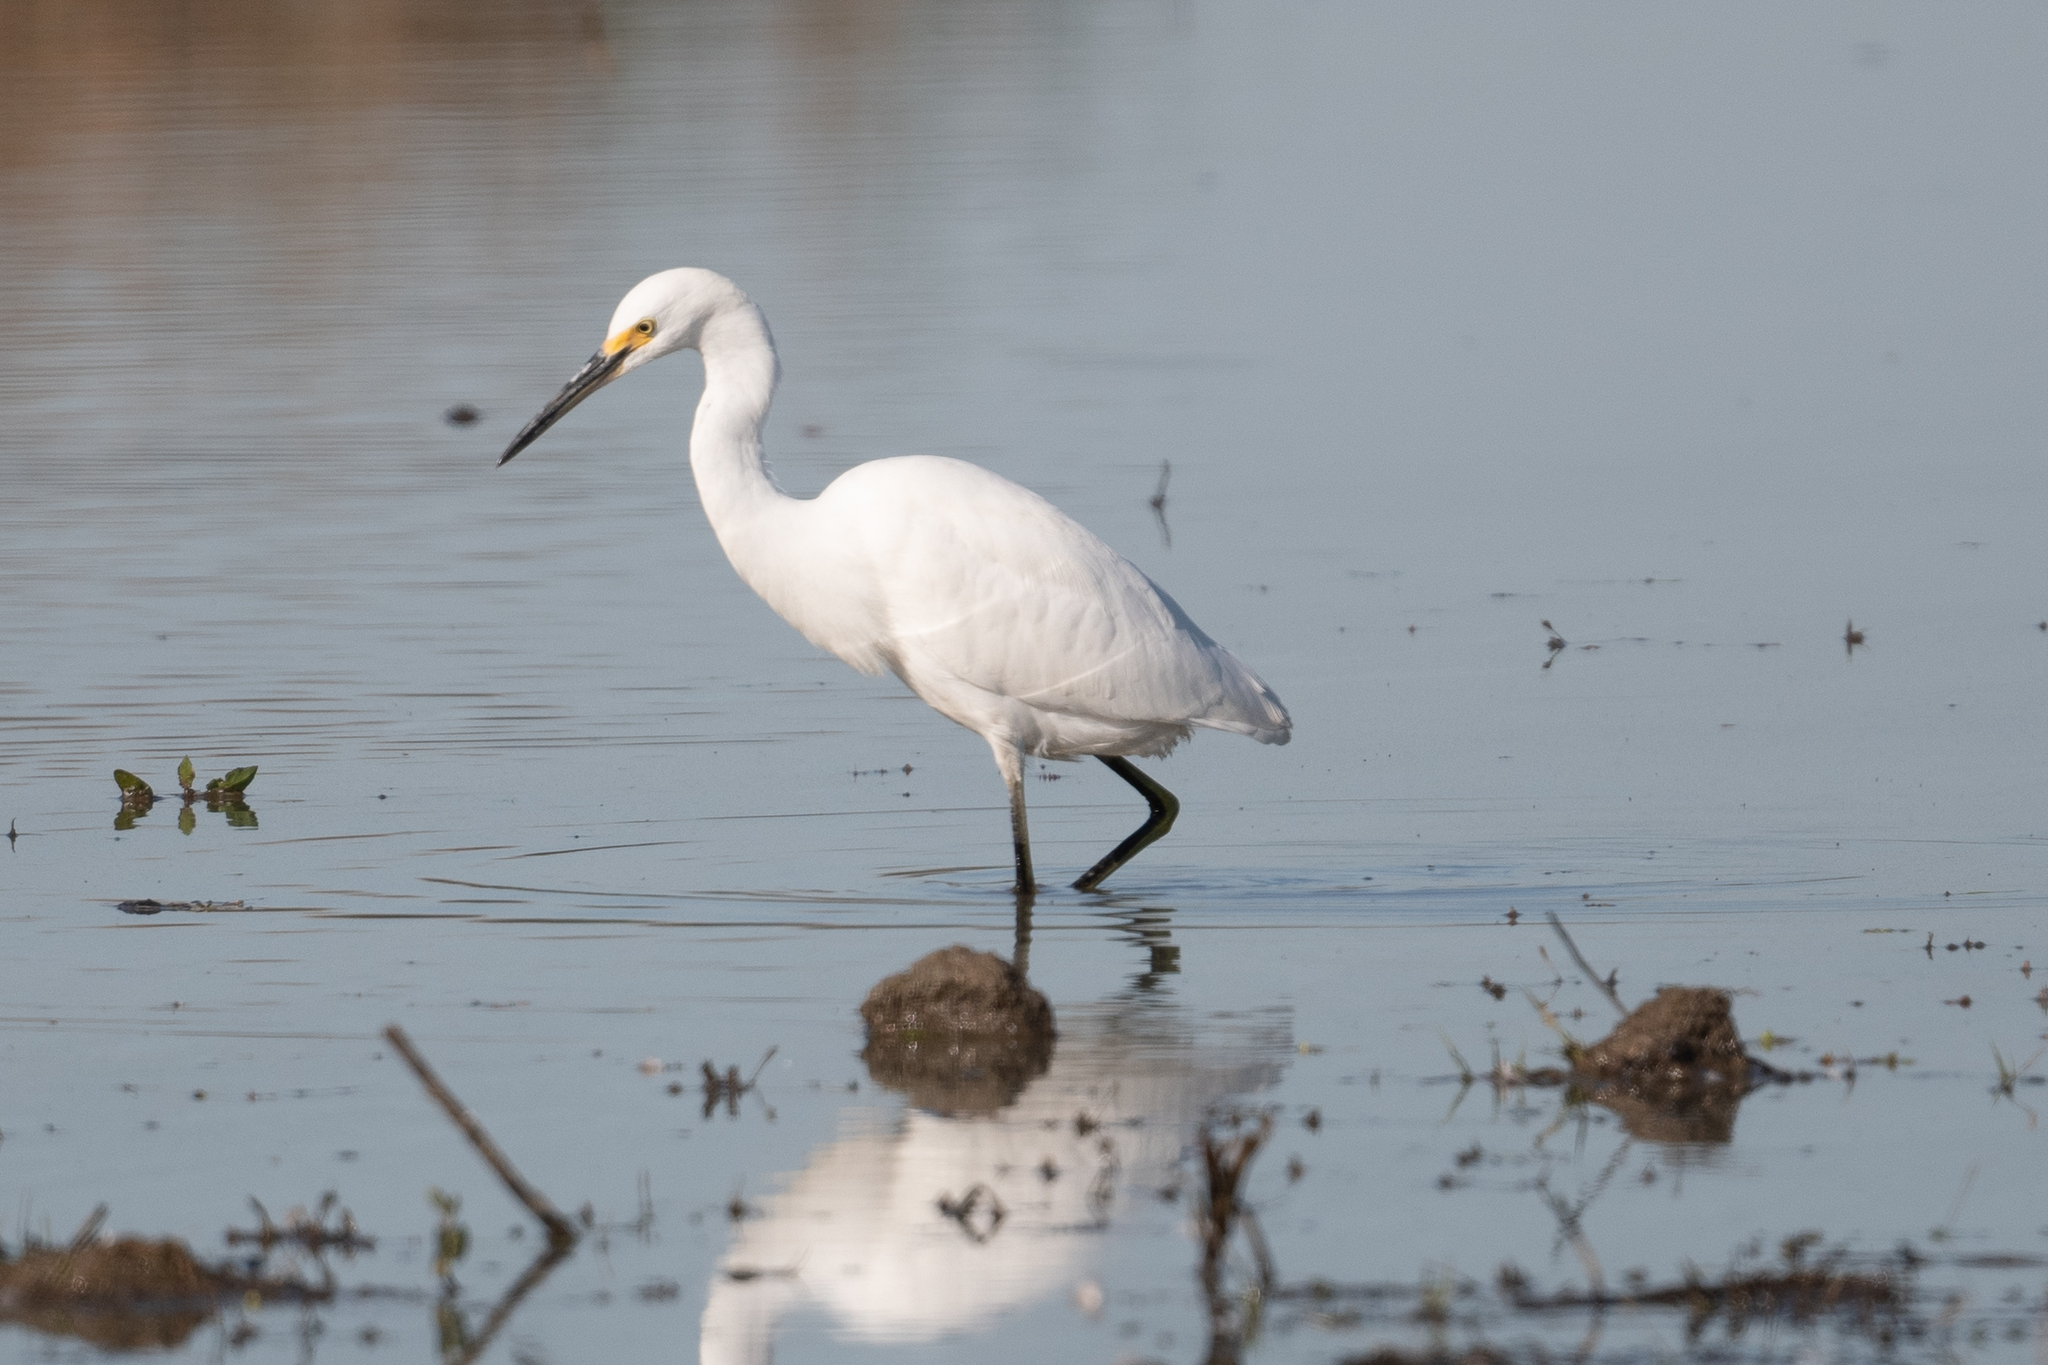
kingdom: Animalia
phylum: Chordata
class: Aves
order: Pelecaniformes
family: Ardeidae
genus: Egretta
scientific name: Egretta thula
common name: Snowy egret
